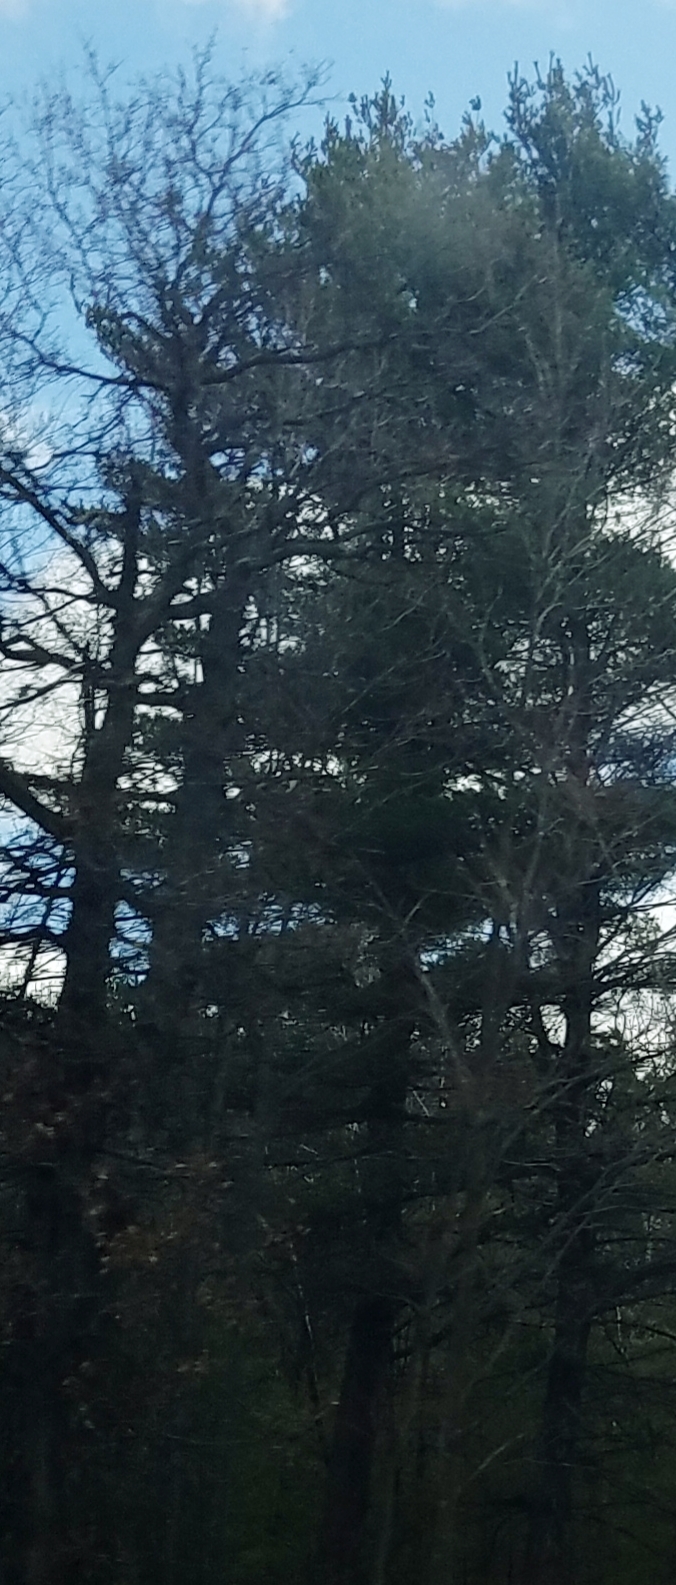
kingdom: Plantae
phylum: Tracheophyta
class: Pinopsida
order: Pinales
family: Pinaceae
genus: Pinus
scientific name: Pinus strobus
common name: Weymouth pine
